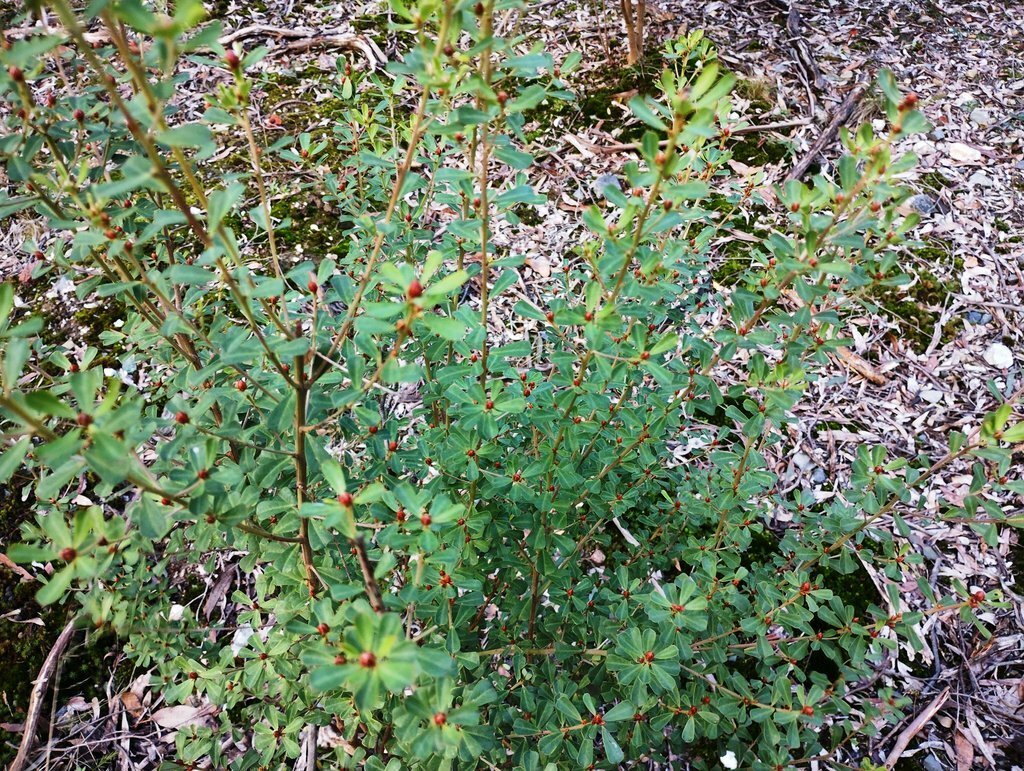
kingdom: Plantae
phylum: Tracheophyta
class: Magnoliopsida
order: Fabales
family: Fabaceae
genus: Pultenaea
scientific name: Pultenaea daphnoides
